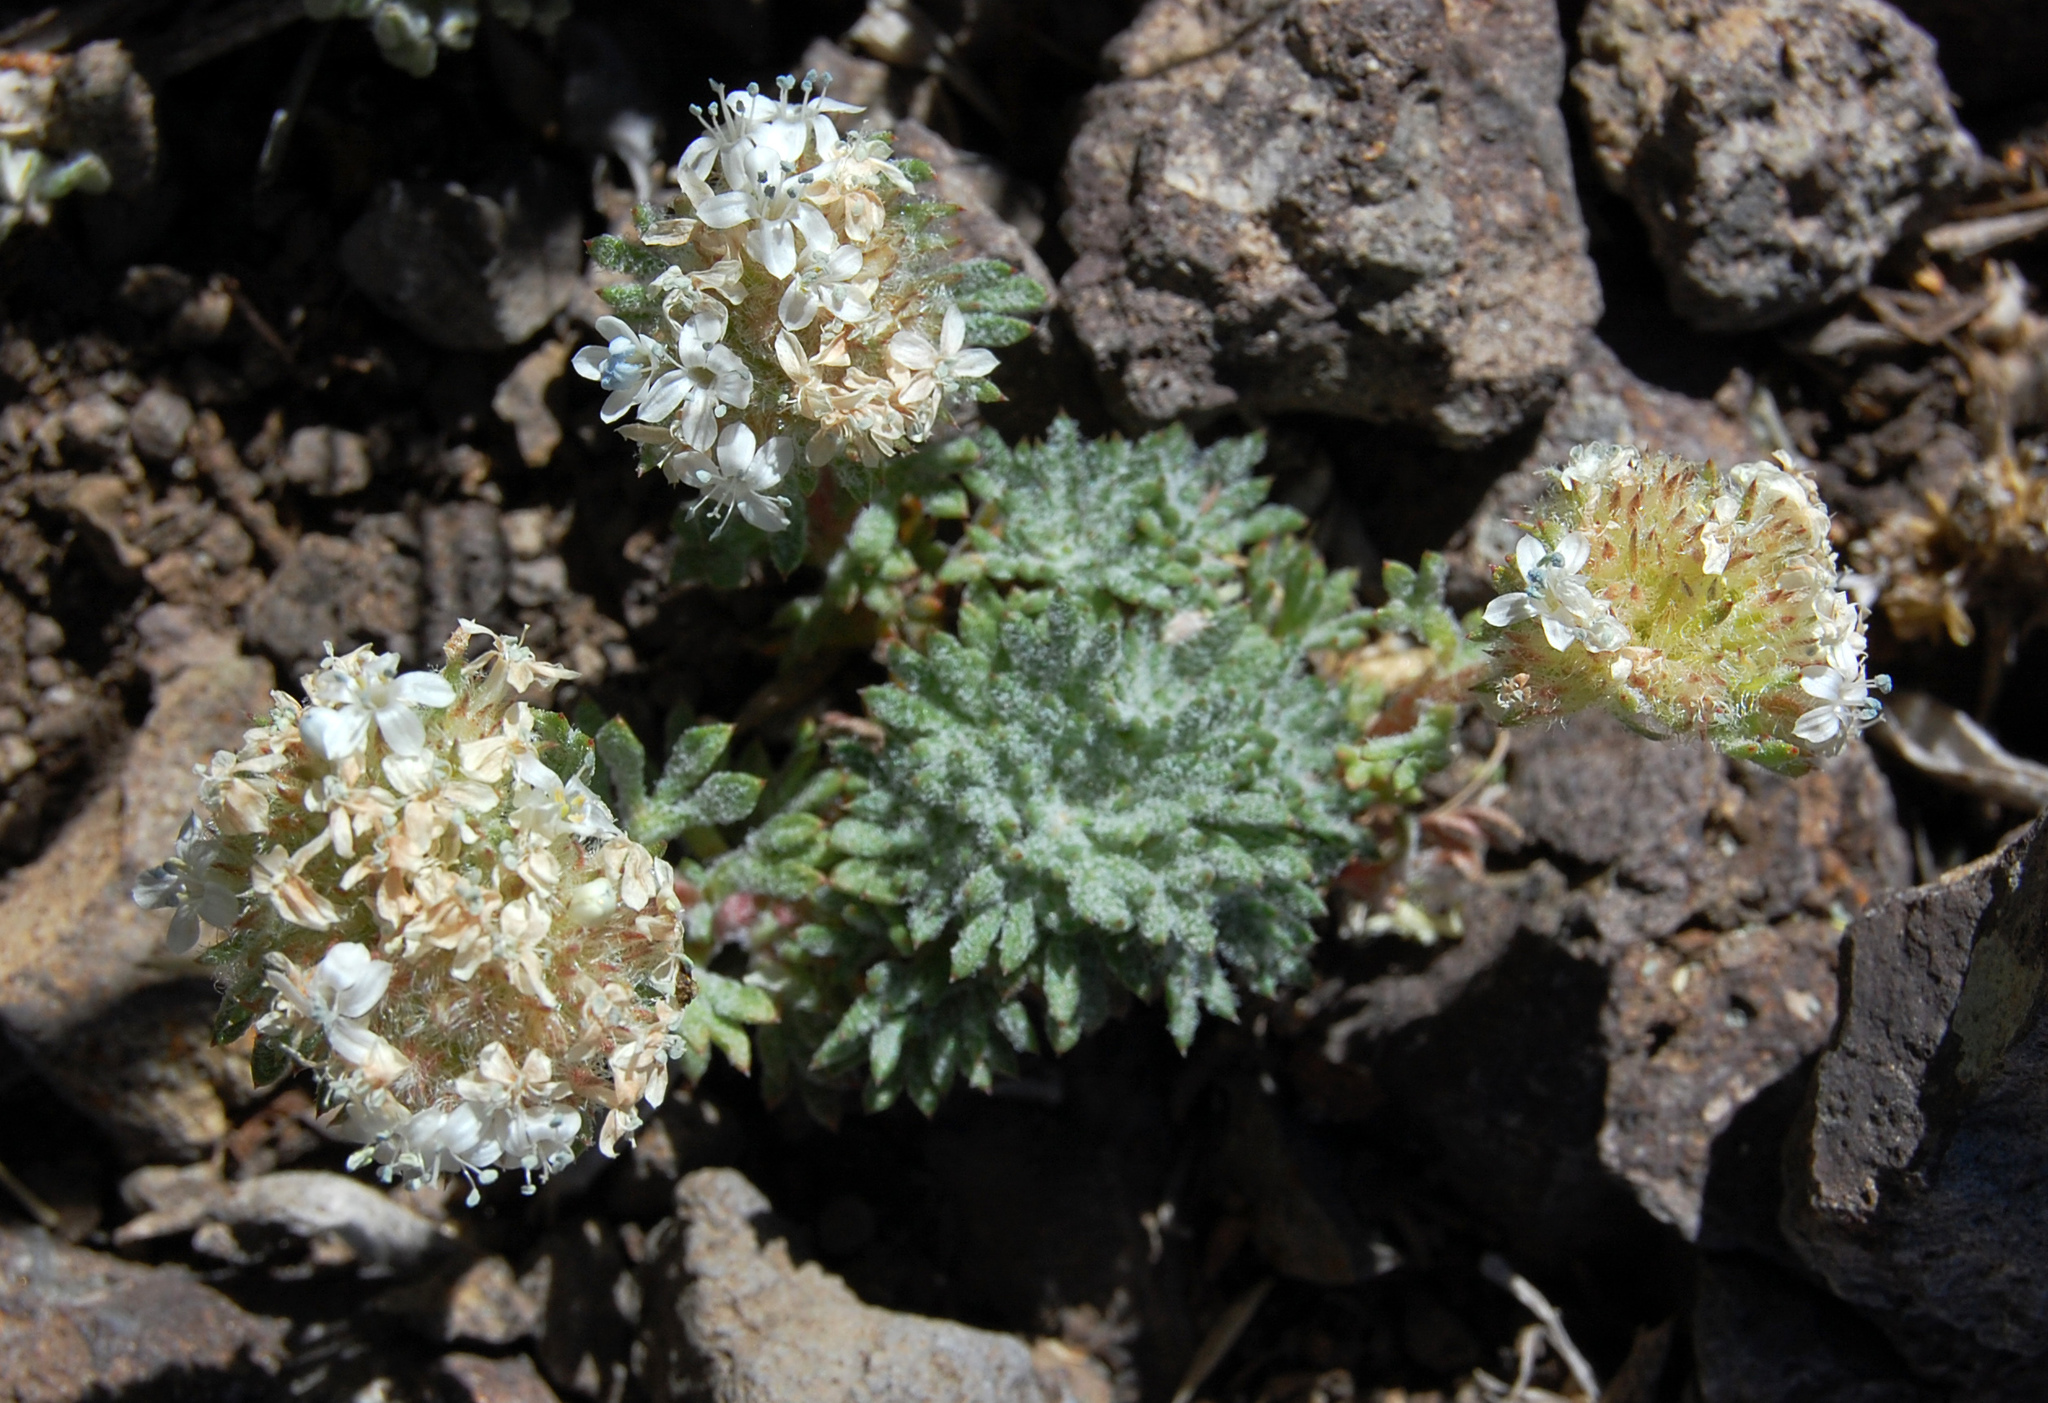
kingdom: Plantae
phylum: Tracheophyta
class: Magnoliopsida
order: Ericales
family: Polemoniaceae
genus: Ipomopsis
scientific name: Ipomopsis congesta
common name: Ball-head gilia
